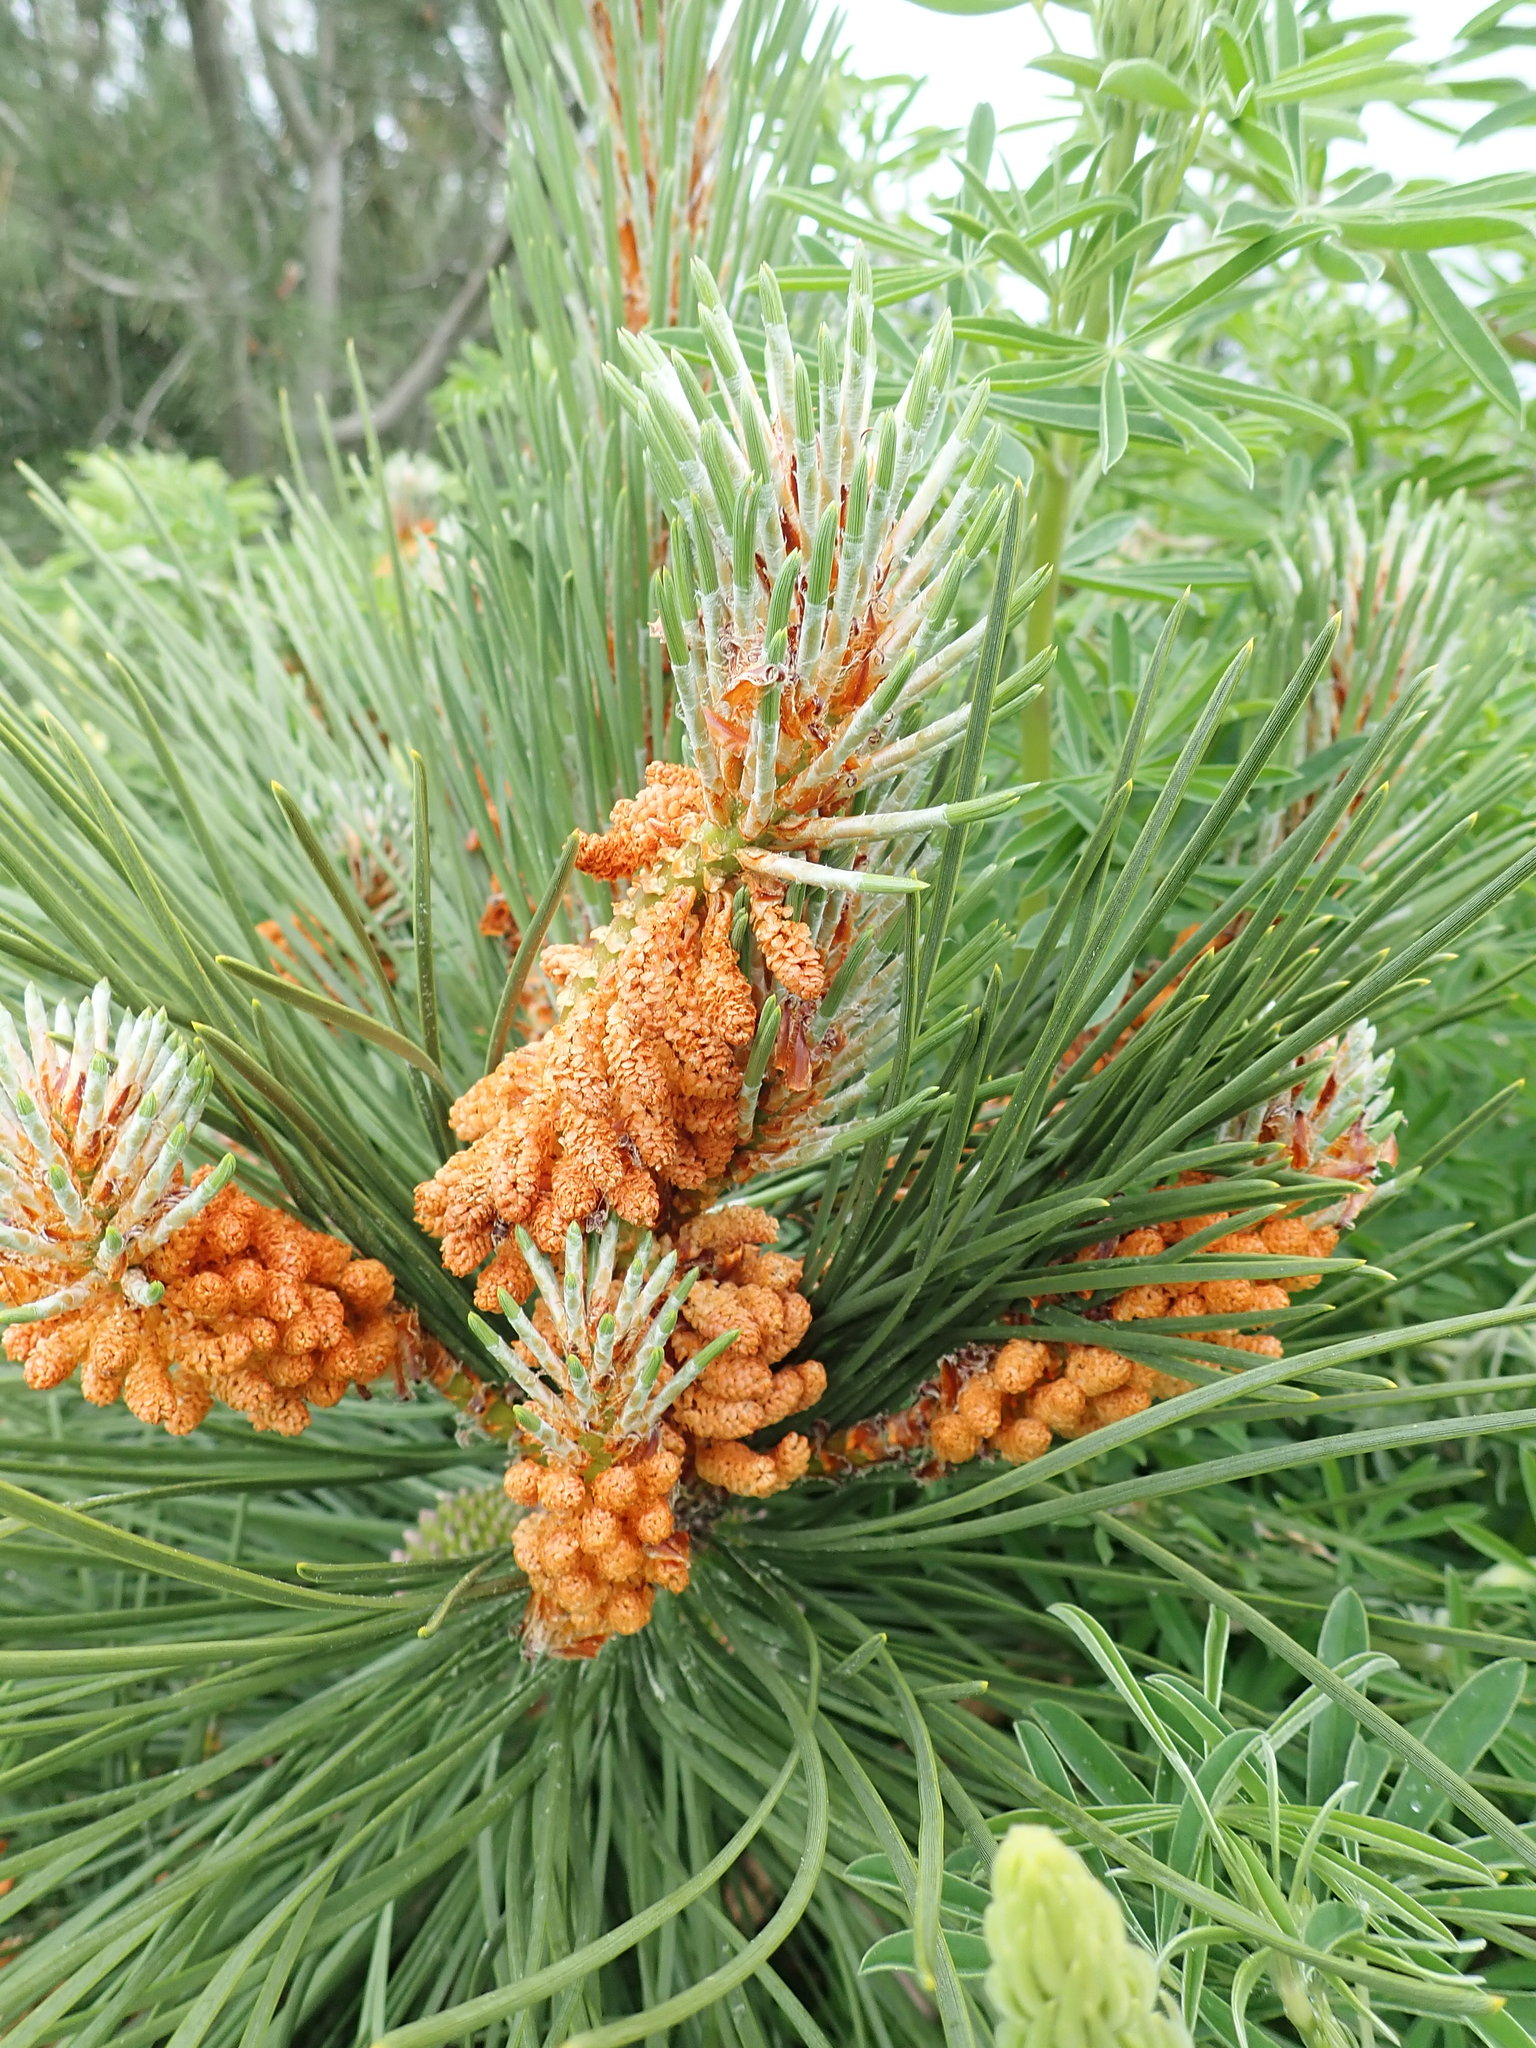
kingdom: Plantae
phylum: Tracheophyta
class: Pinopsida
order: Pinales
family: Pinaceae
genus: Pinus
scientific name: Pinus pinaster
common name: Maritime pine
